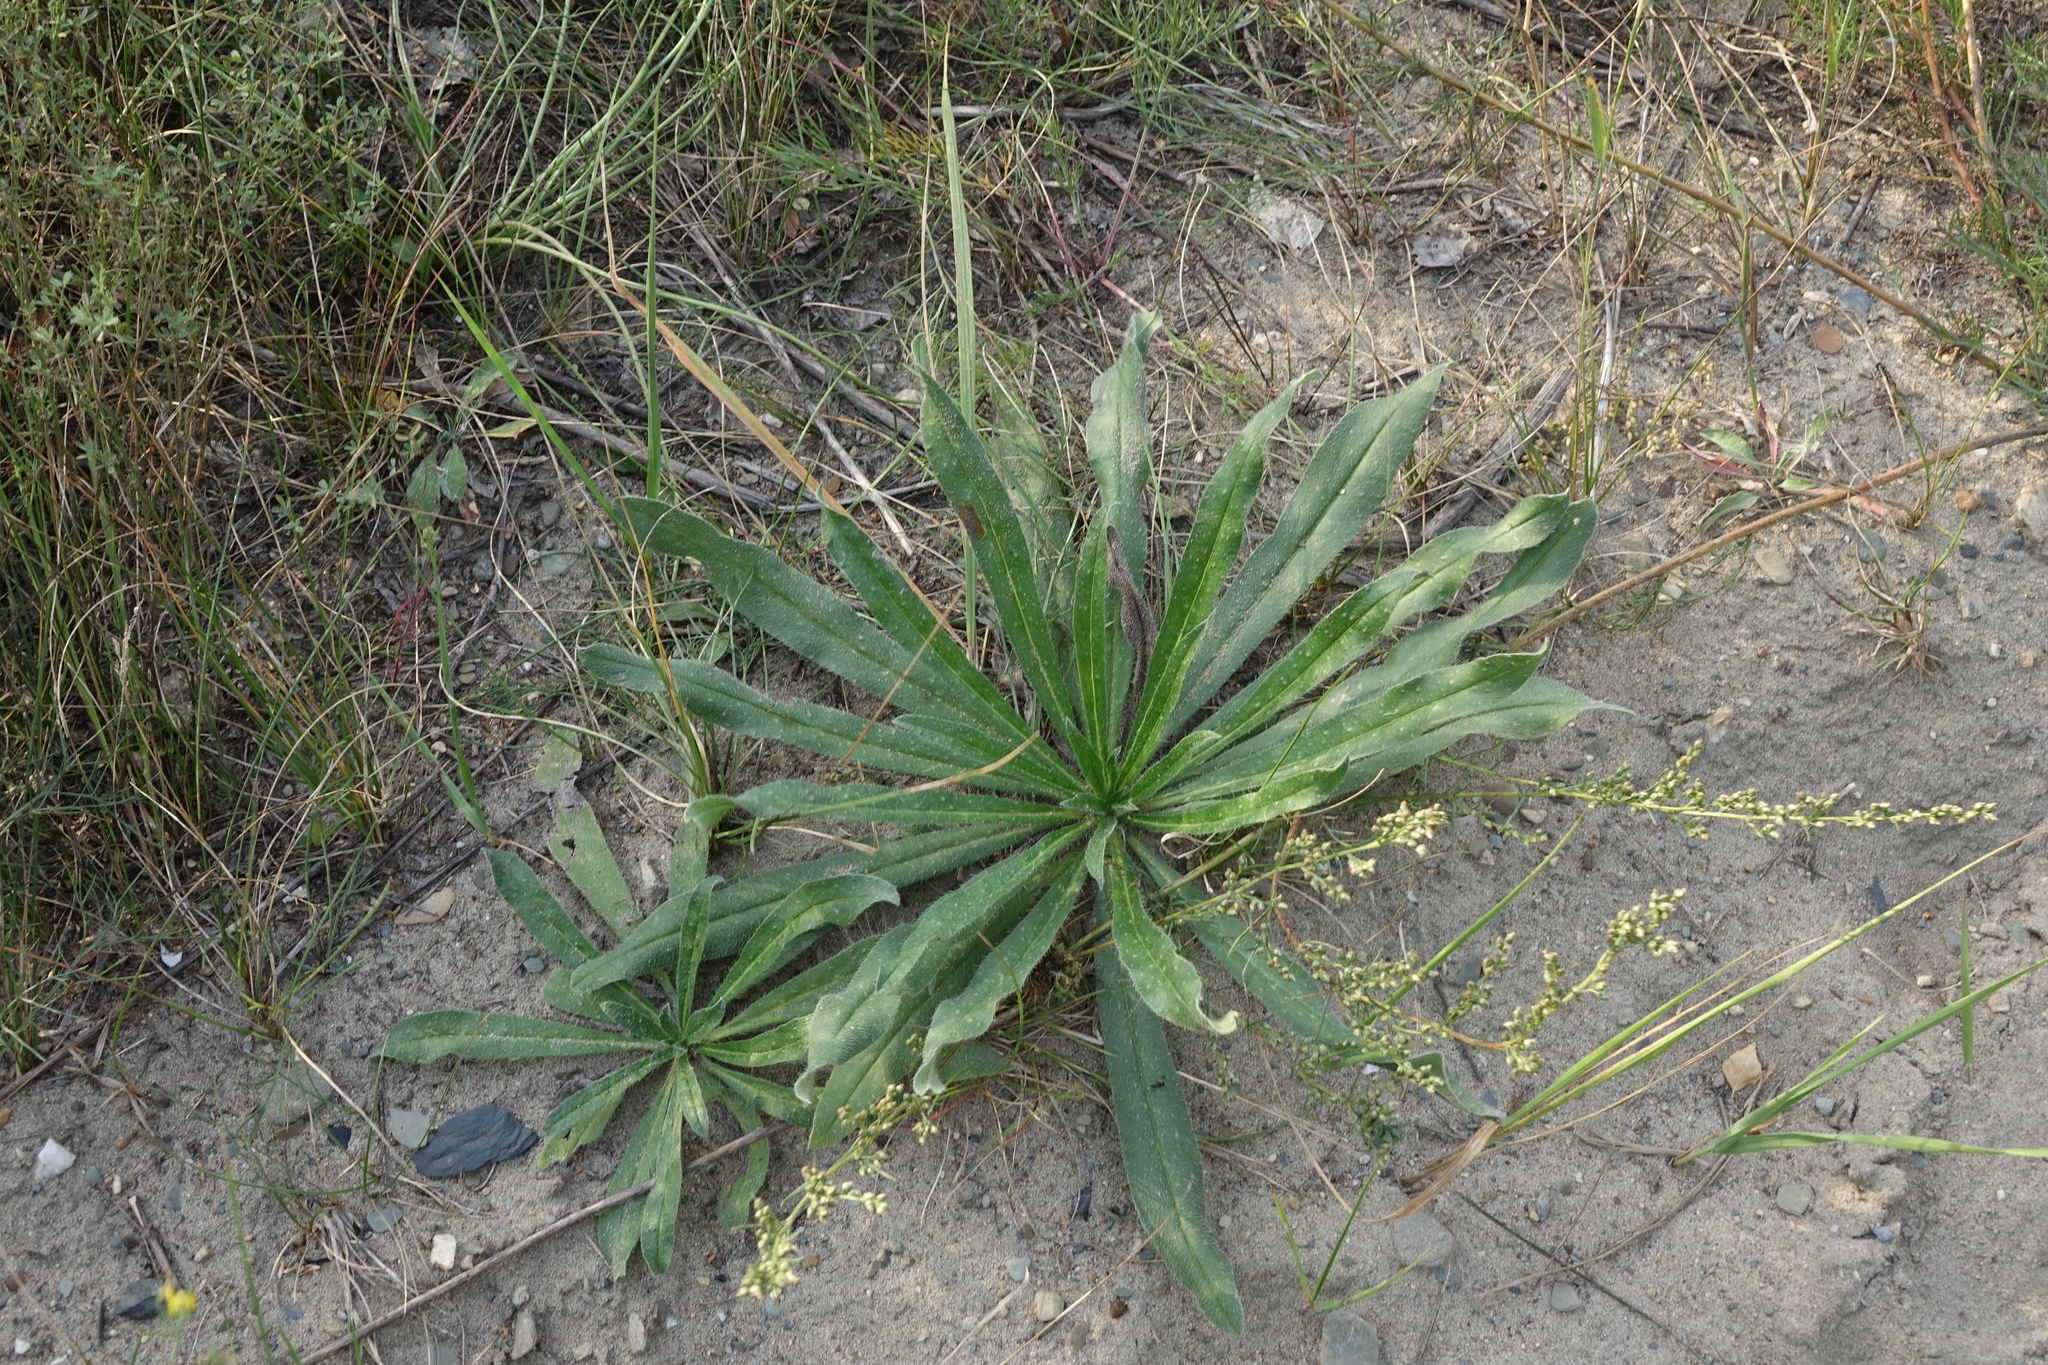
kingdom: Plantae
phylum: Tracheophyta
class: Magnoliopsida
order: Boraginales
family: Boraginaceae
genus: Echium
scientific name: Echium vulgare
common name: Common viper's bugloss
